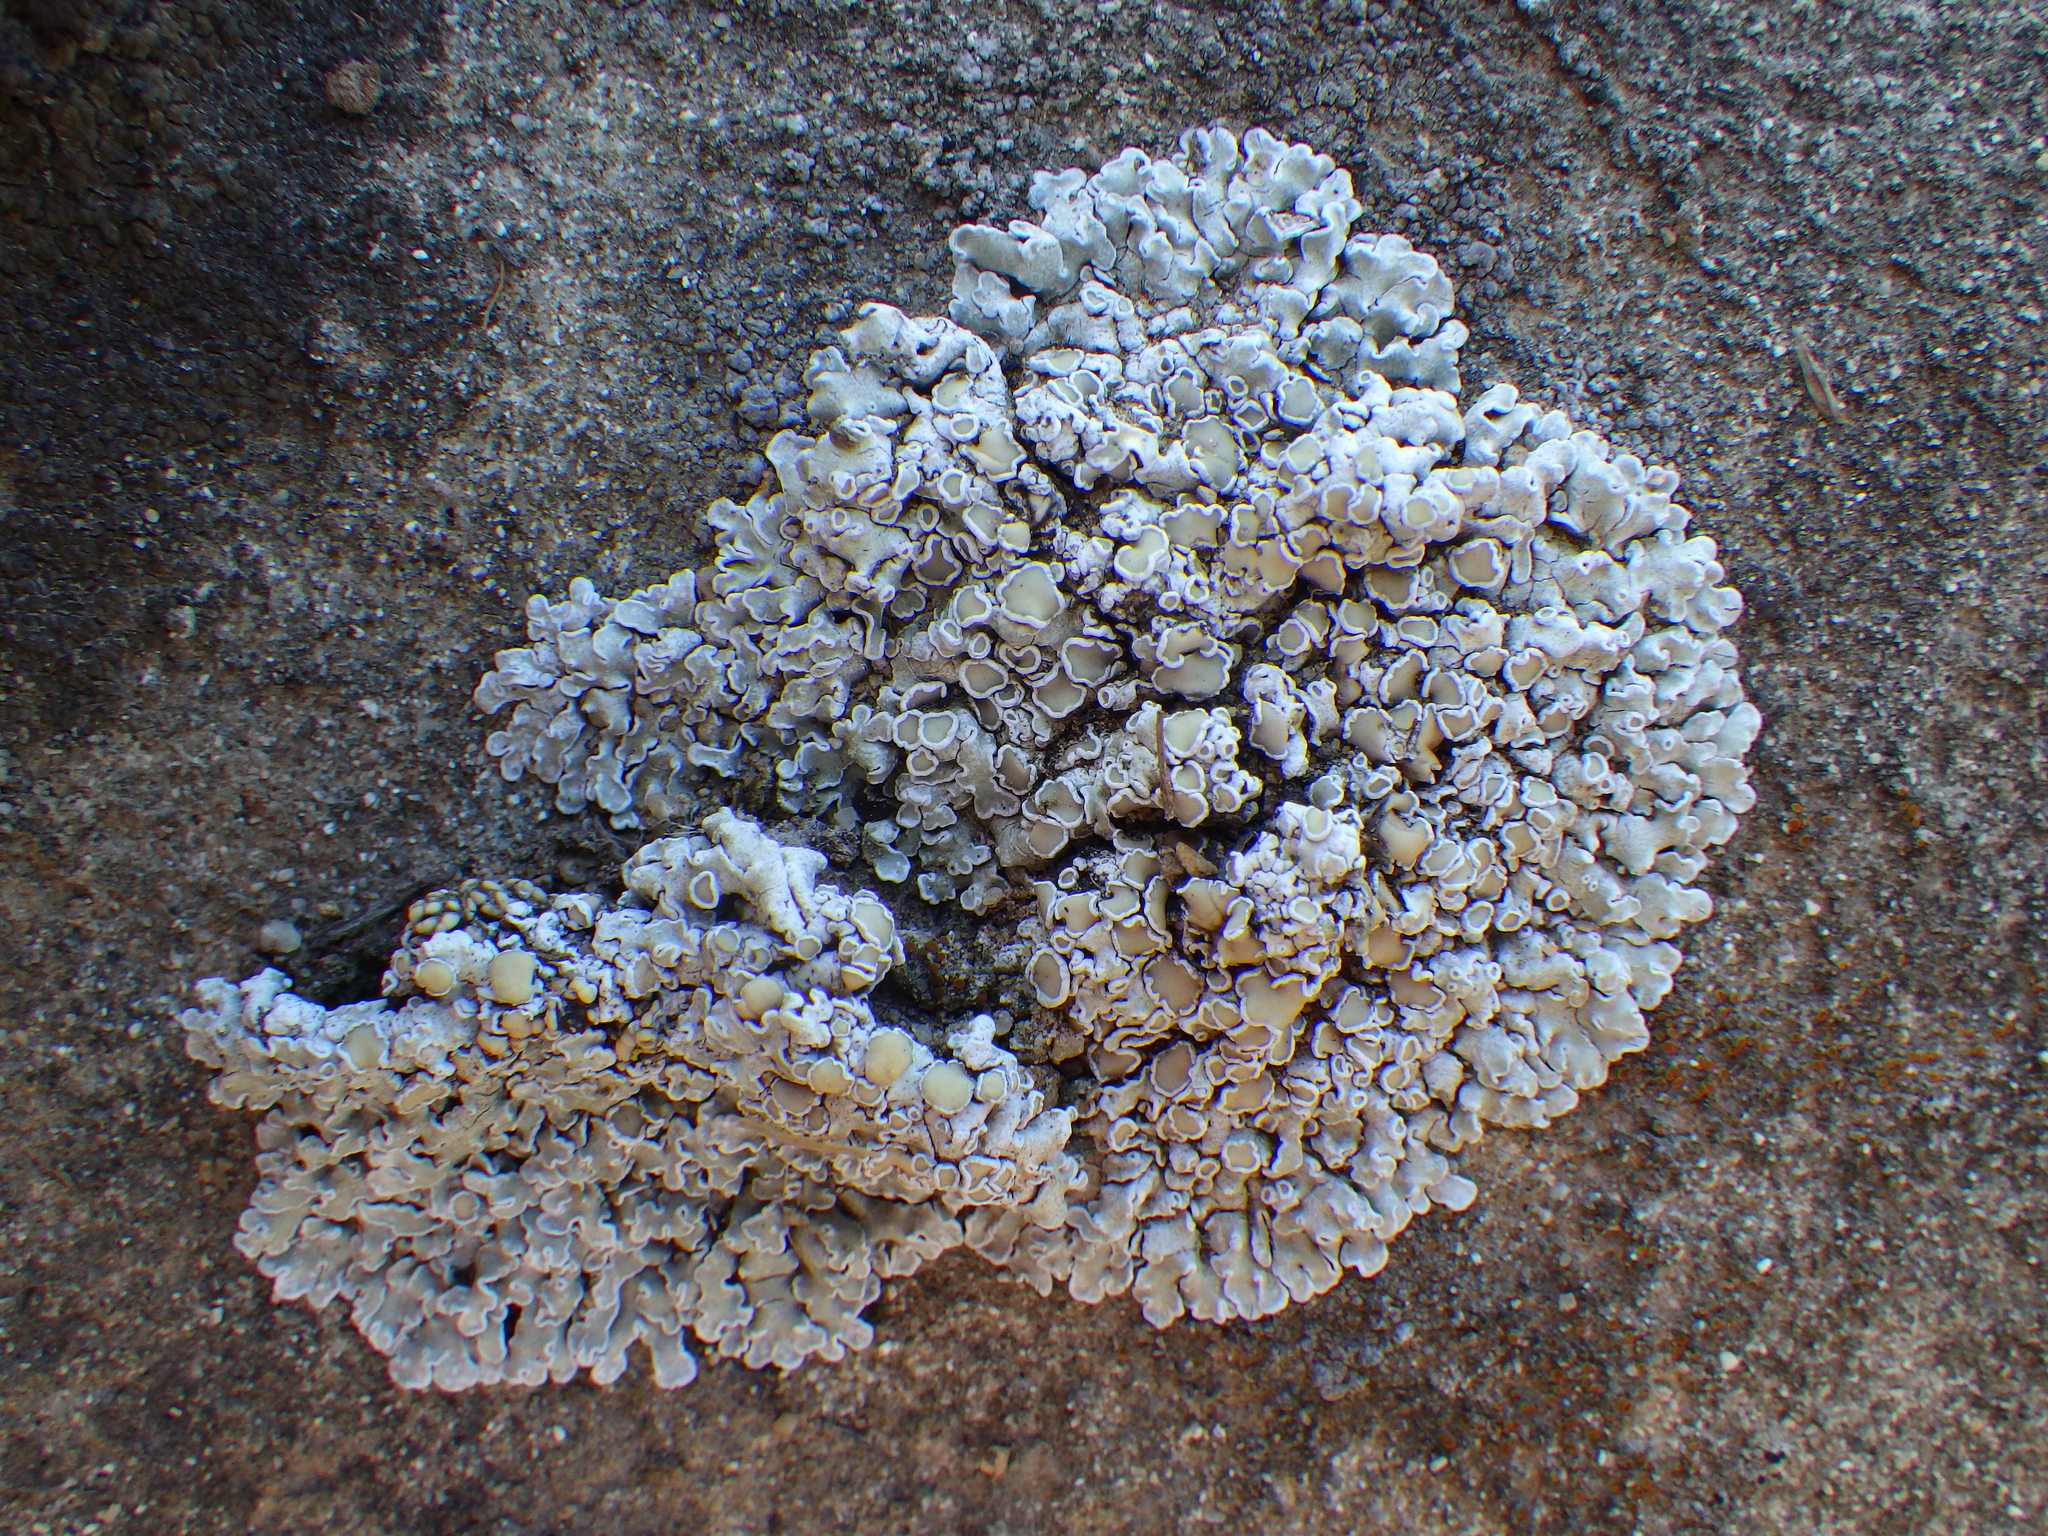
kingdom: Fungi
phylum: Ascomycota
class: Lecanoromycetes
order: Lecanorales
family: Lecanoraceae
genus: Protoparmeliopsis
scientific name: Protoparmeliopsis muralis
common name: Stonewall rim lichen
